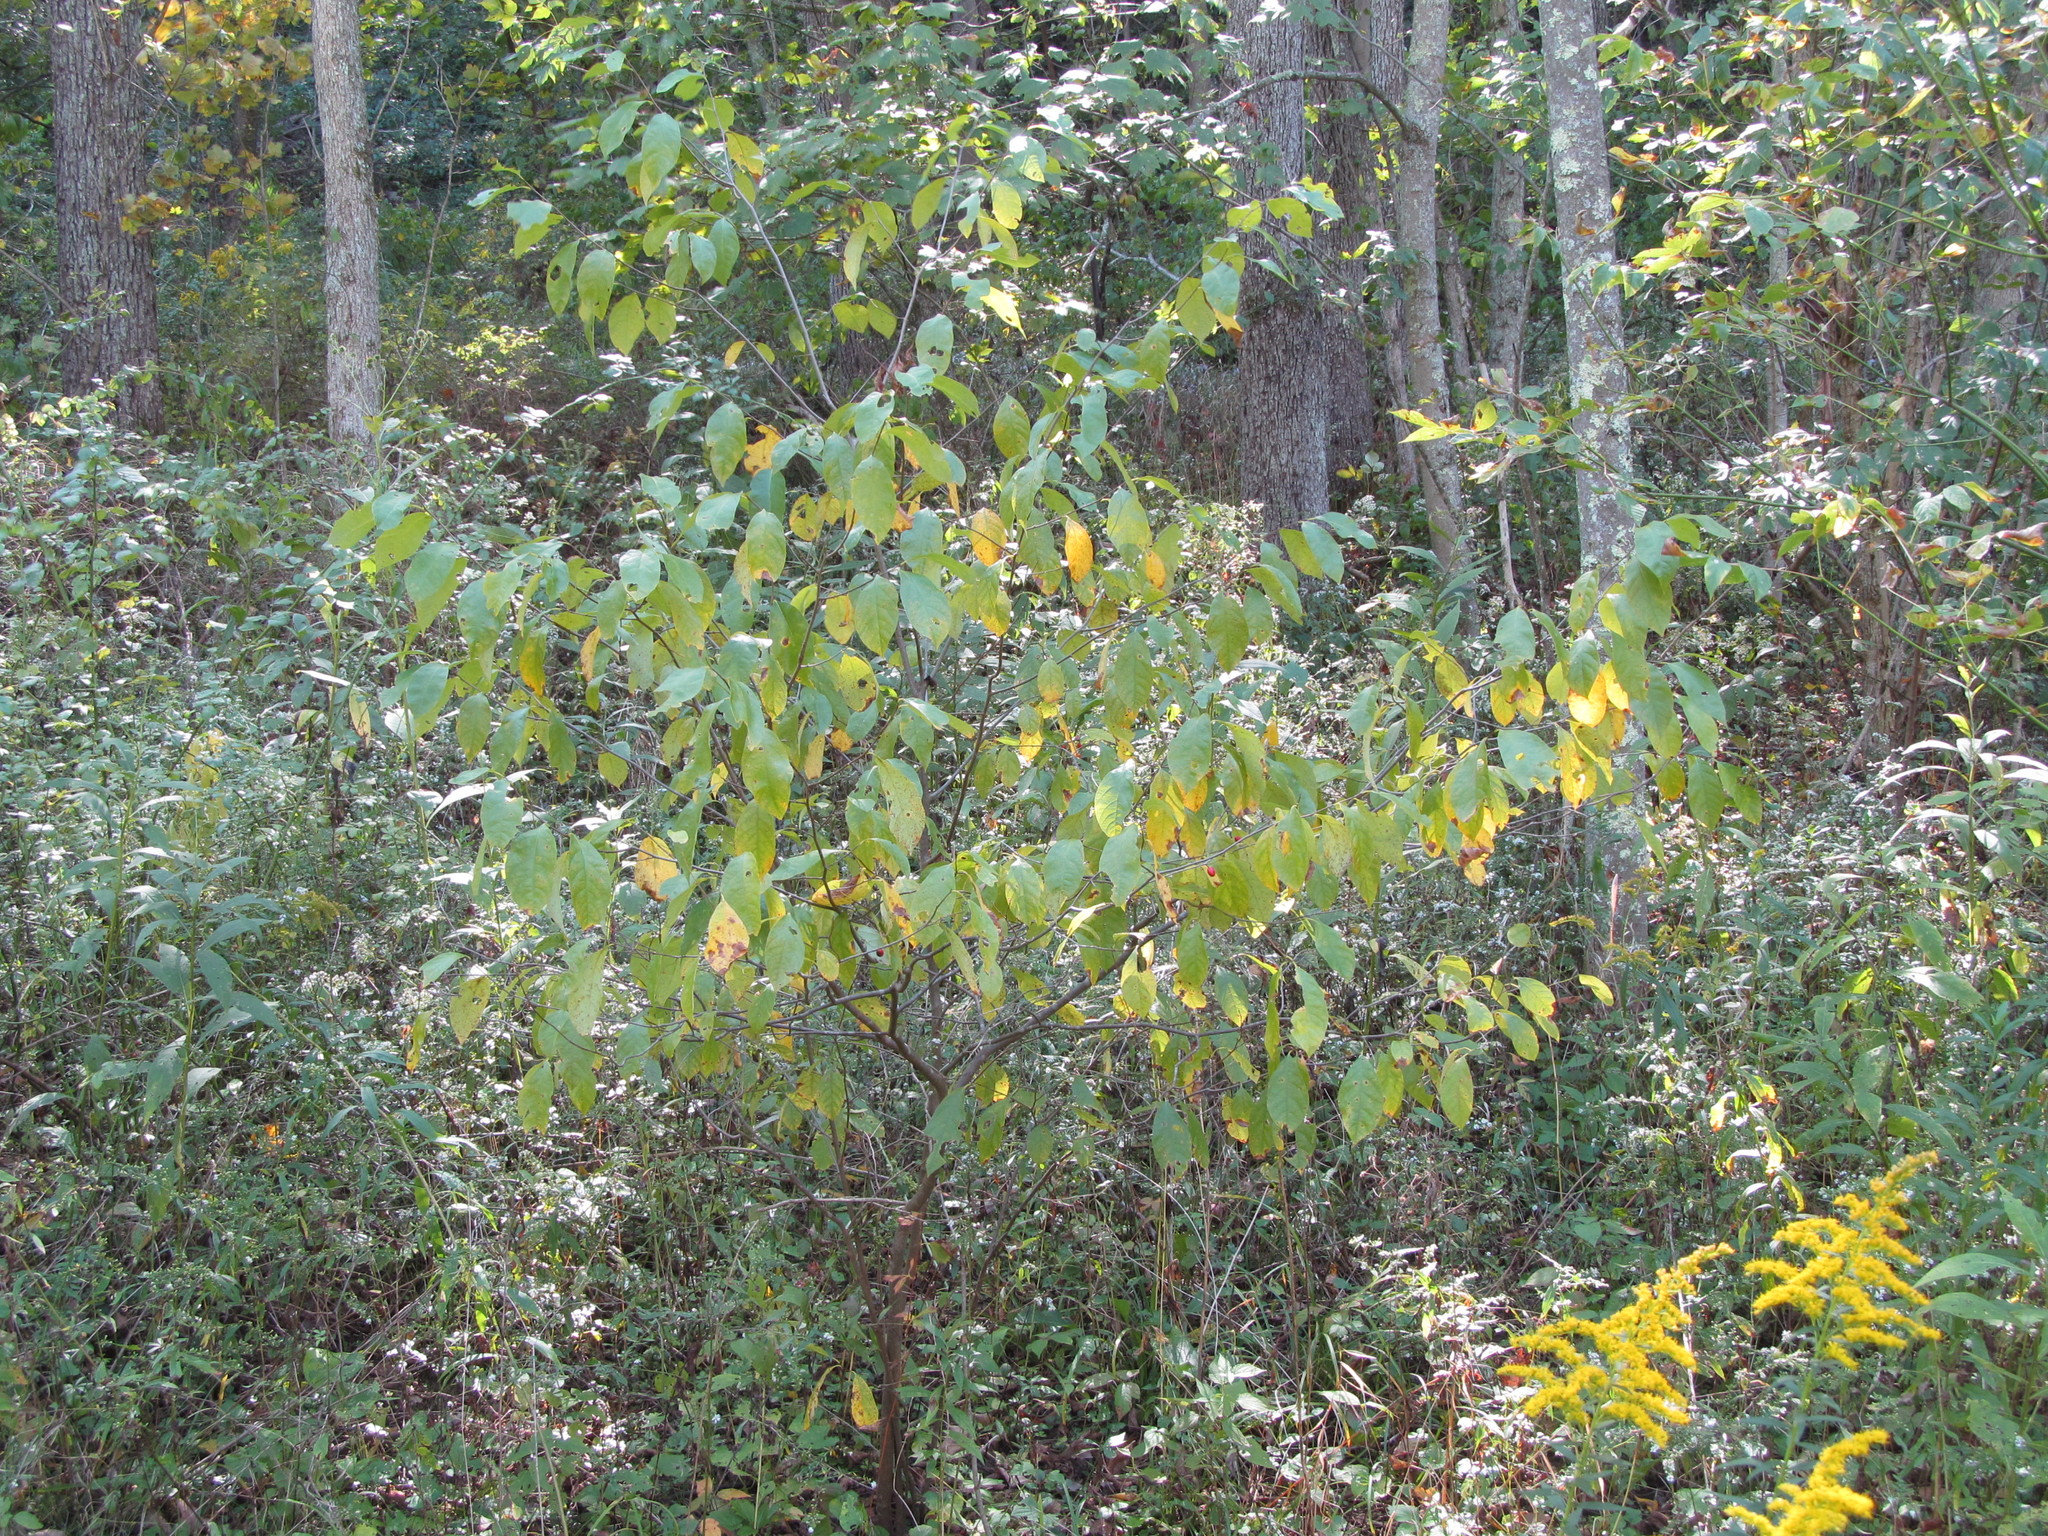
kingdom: Plantae
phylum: Tracheophyta
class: Magnoliopsida
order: Laurales
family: Lauraceae
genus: Lindera
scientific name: Lindera benzoin
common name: Spicebush
